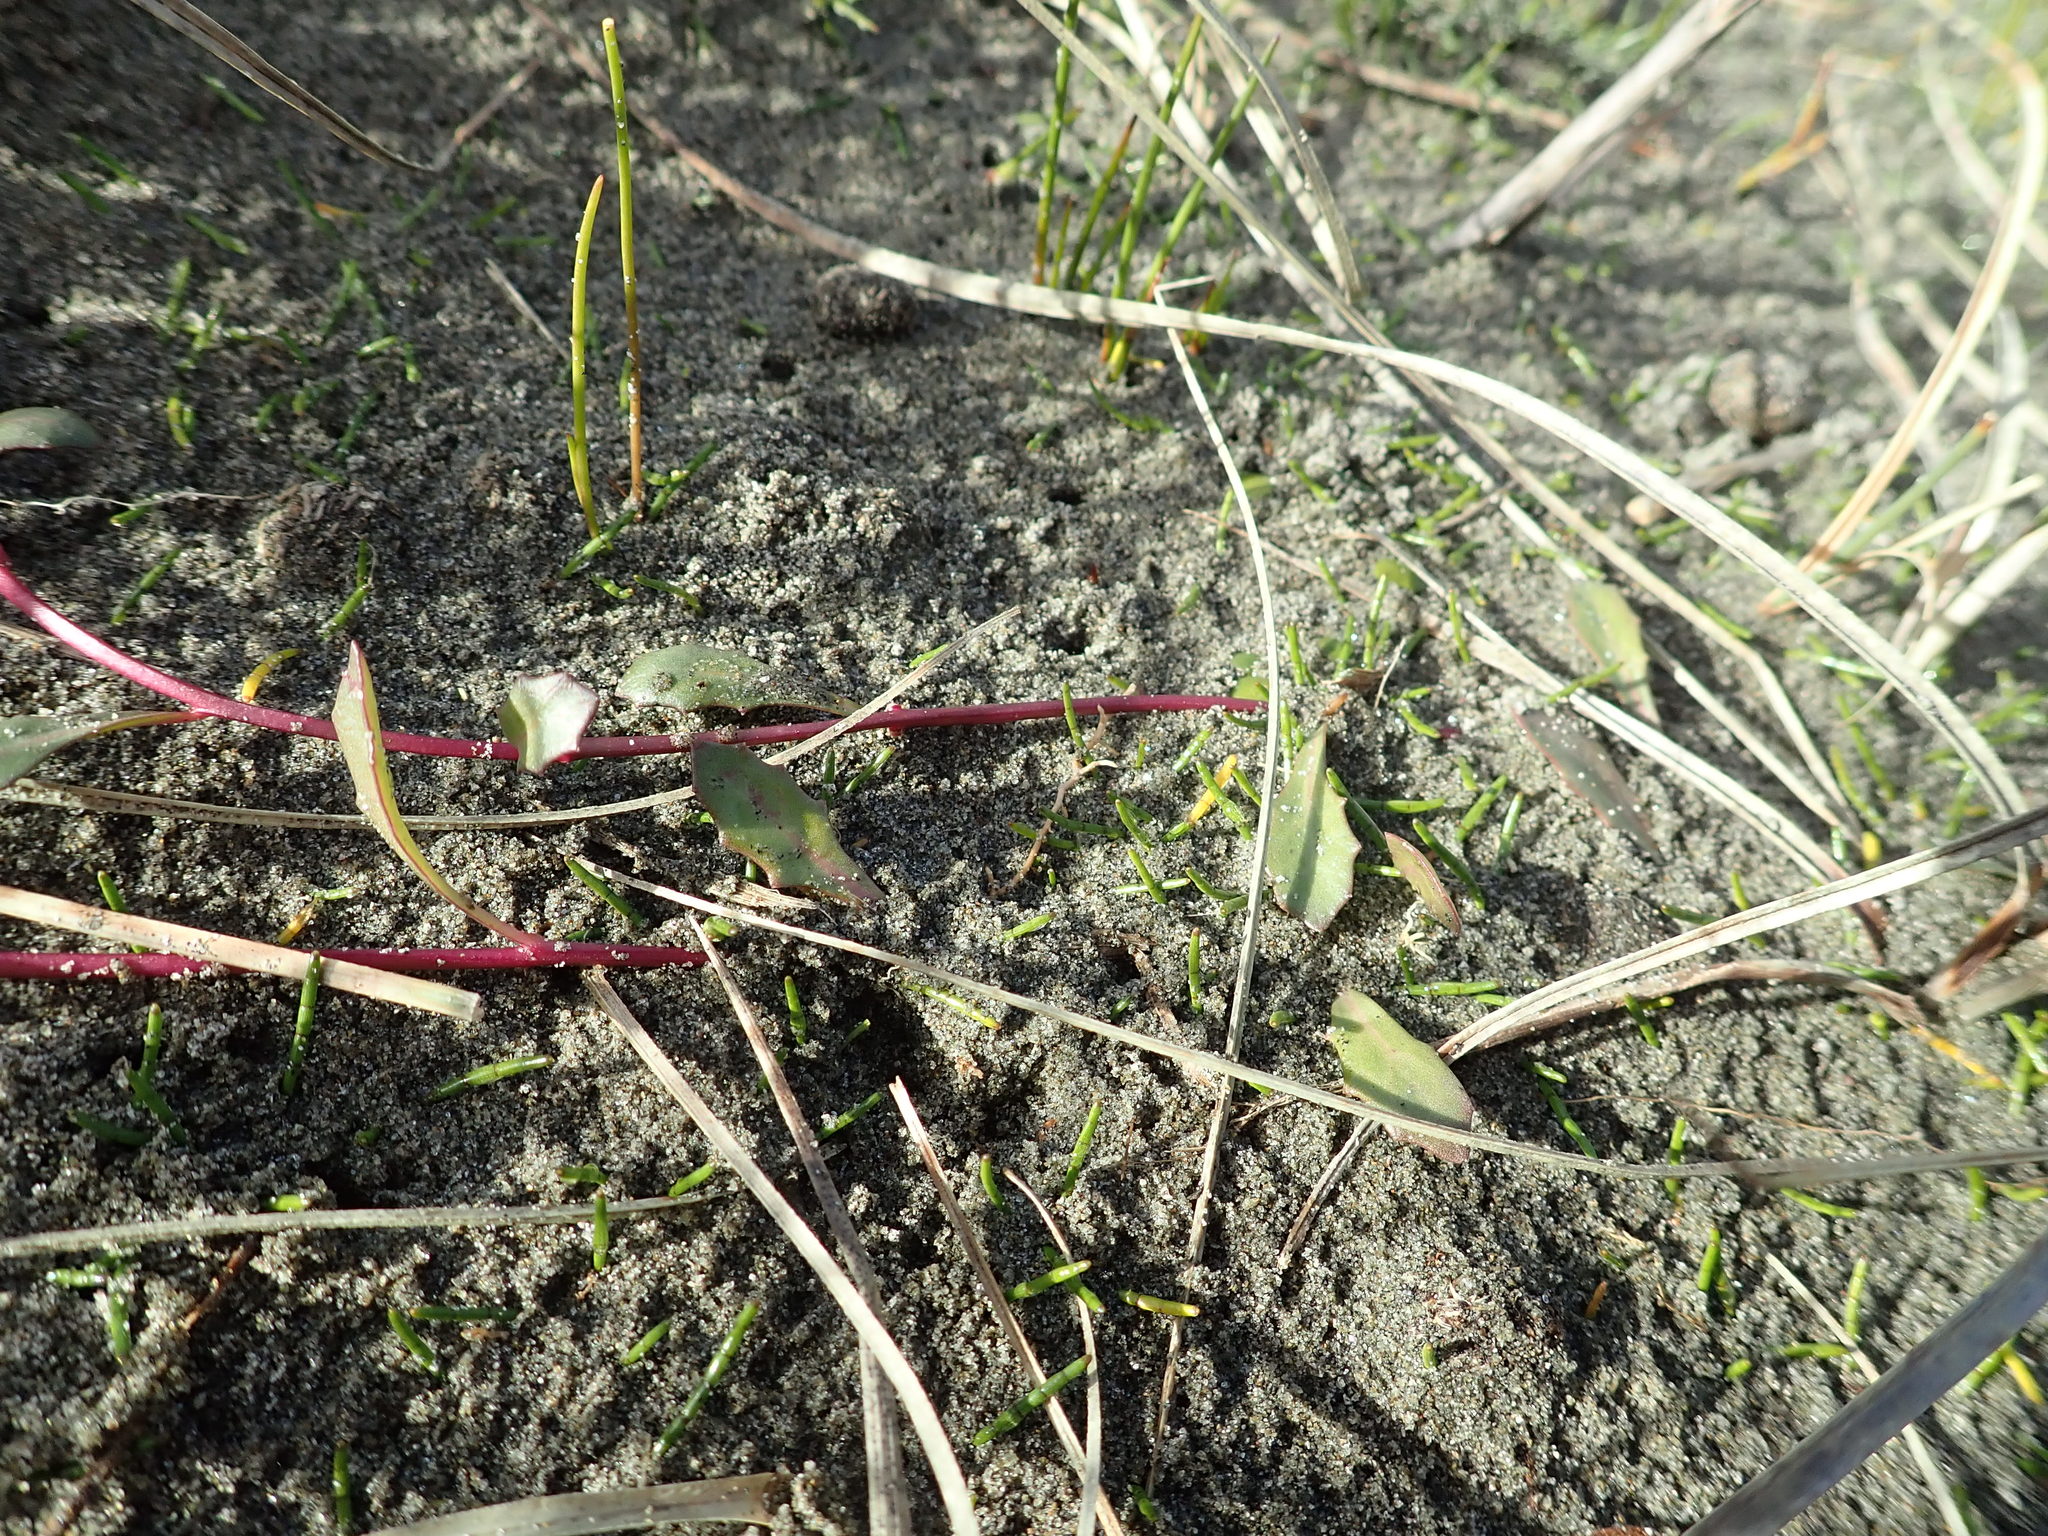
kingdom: Plantae
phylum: Tracheophyta
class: Magnoliopsida
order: Asterales
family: Campanulaceae
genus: Lobelia
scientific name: Lobelia anceps
